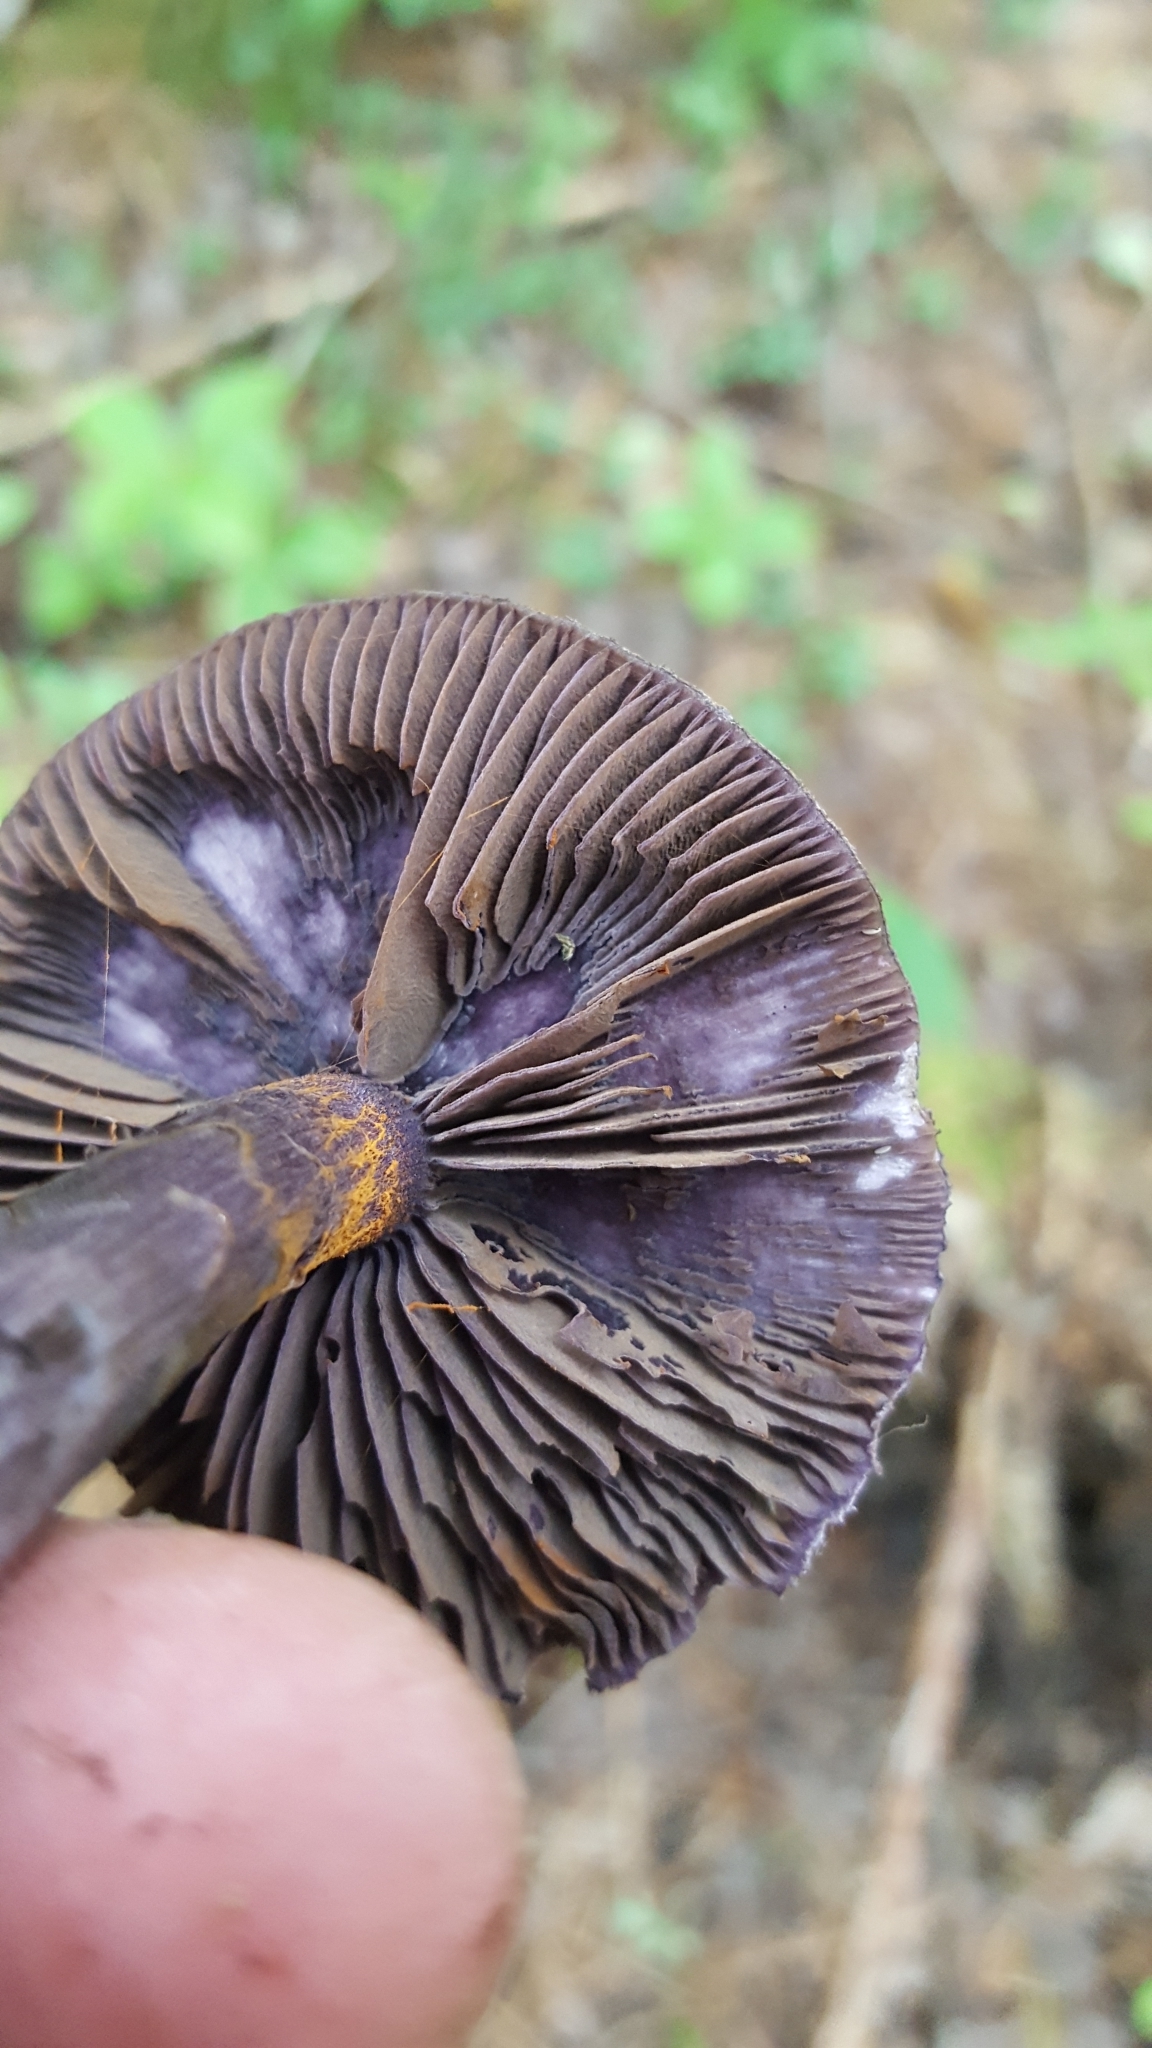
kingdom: Fungi
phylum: Basidiomycota
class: Agaricomycetes
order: Agaricales
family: Cortinariaceae
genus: Cortinarius
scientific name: Cortinarius violaceus
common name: Violet webcap
